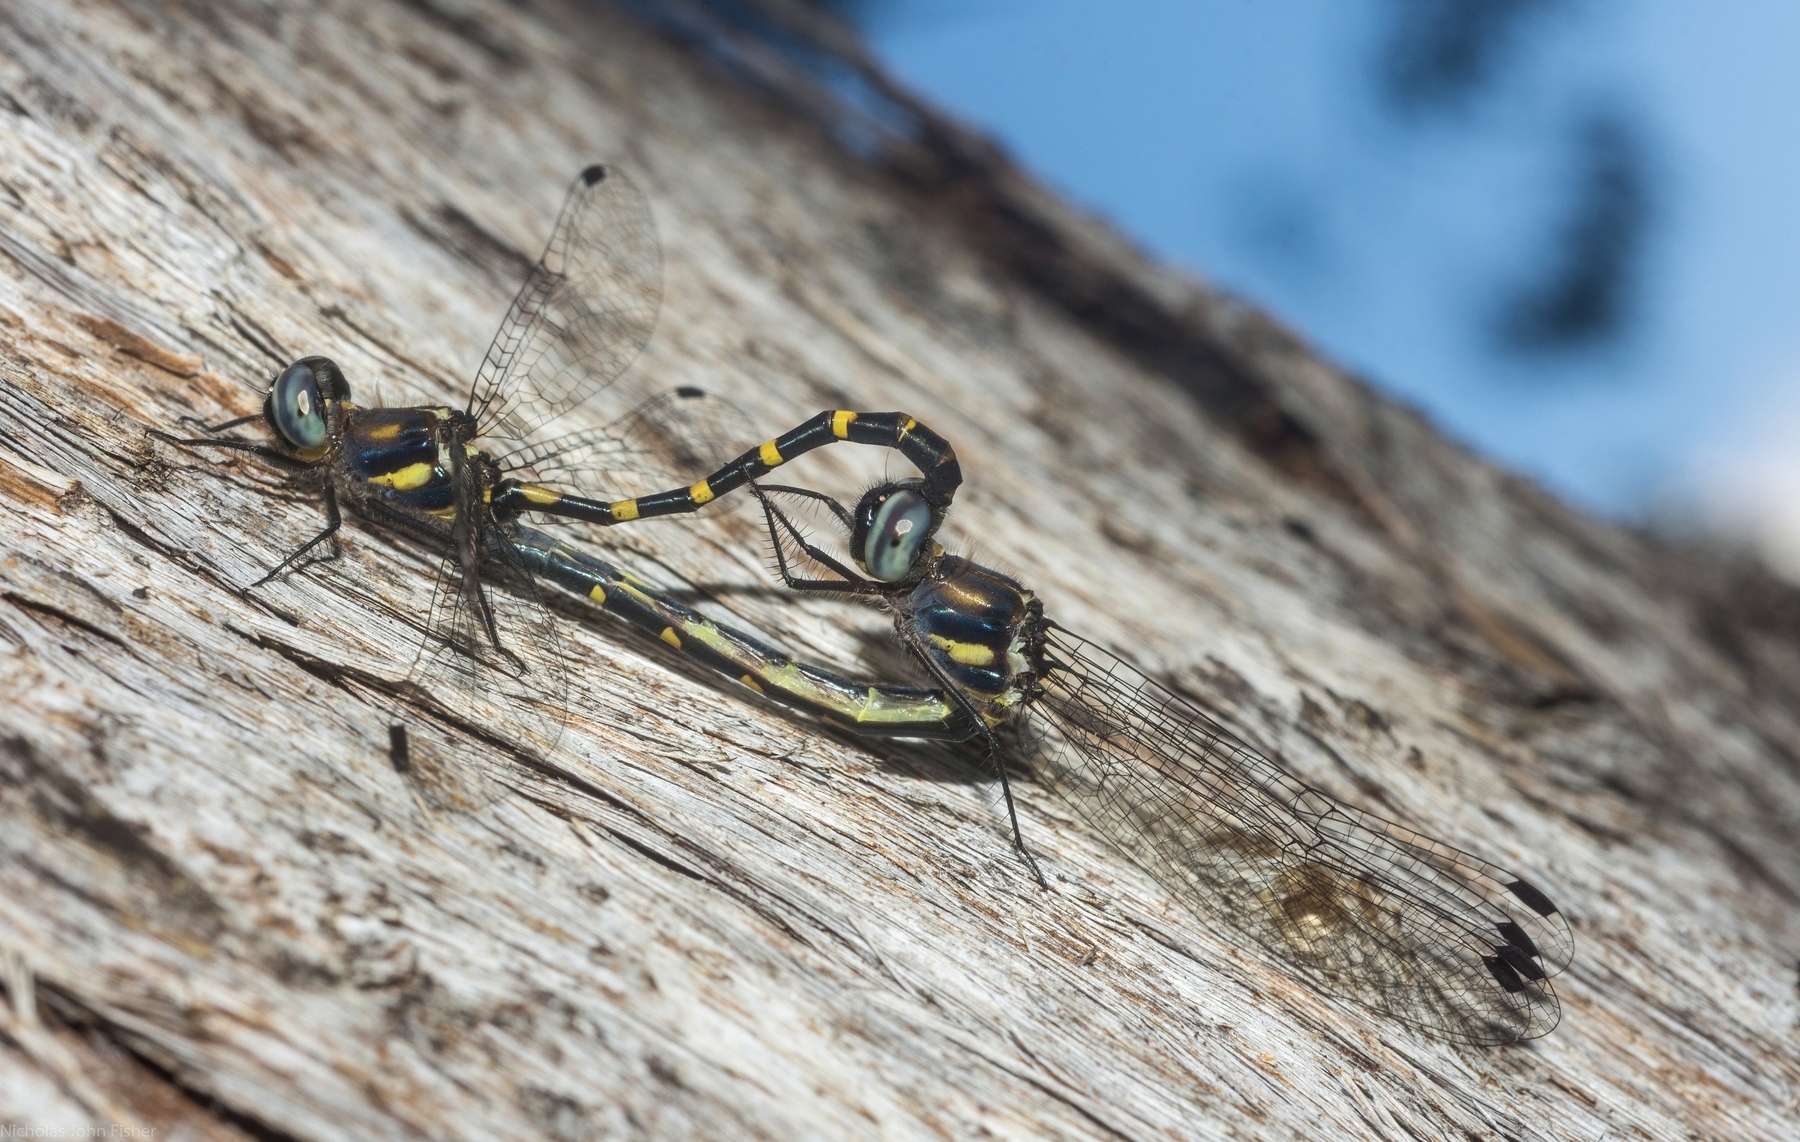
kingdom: Animalia
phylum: Arthropoda
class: Insecta
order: Odonata
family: Corduliidae
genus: Cordulephya
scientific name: Cordulephya pygmaea
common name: Common shutwing
